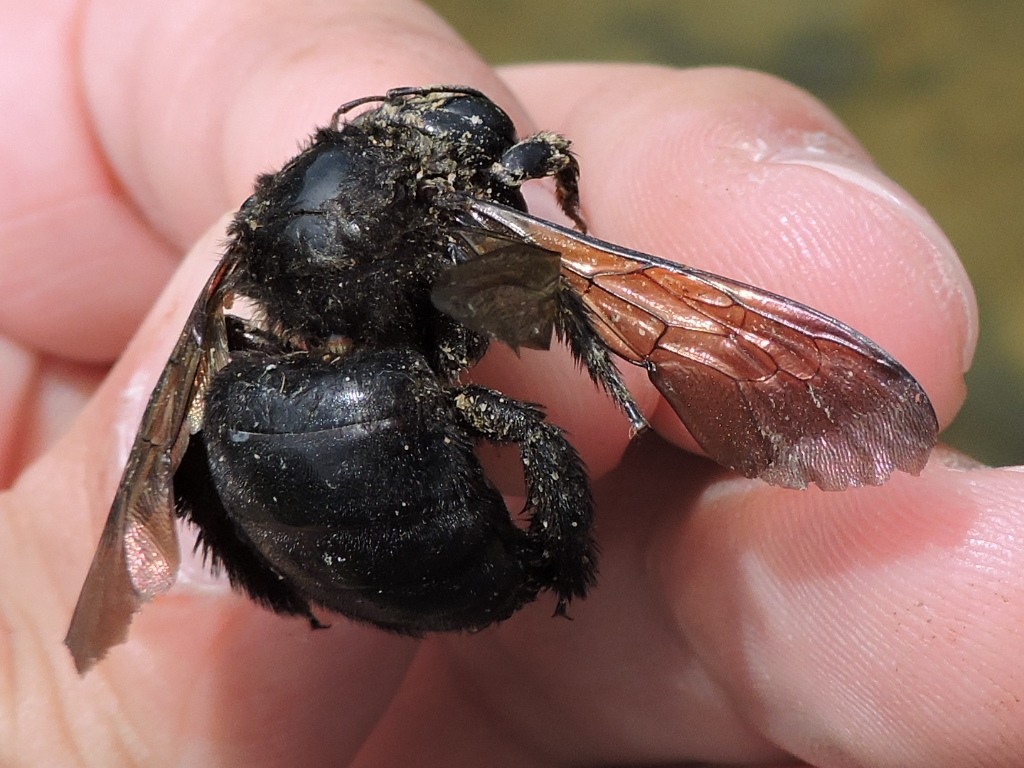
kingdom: Animalia
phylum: Arthropoda
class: Insecta
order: Hymenoptera
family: Apidae
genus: Xylocopa
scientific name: Xylocopa sonorina
